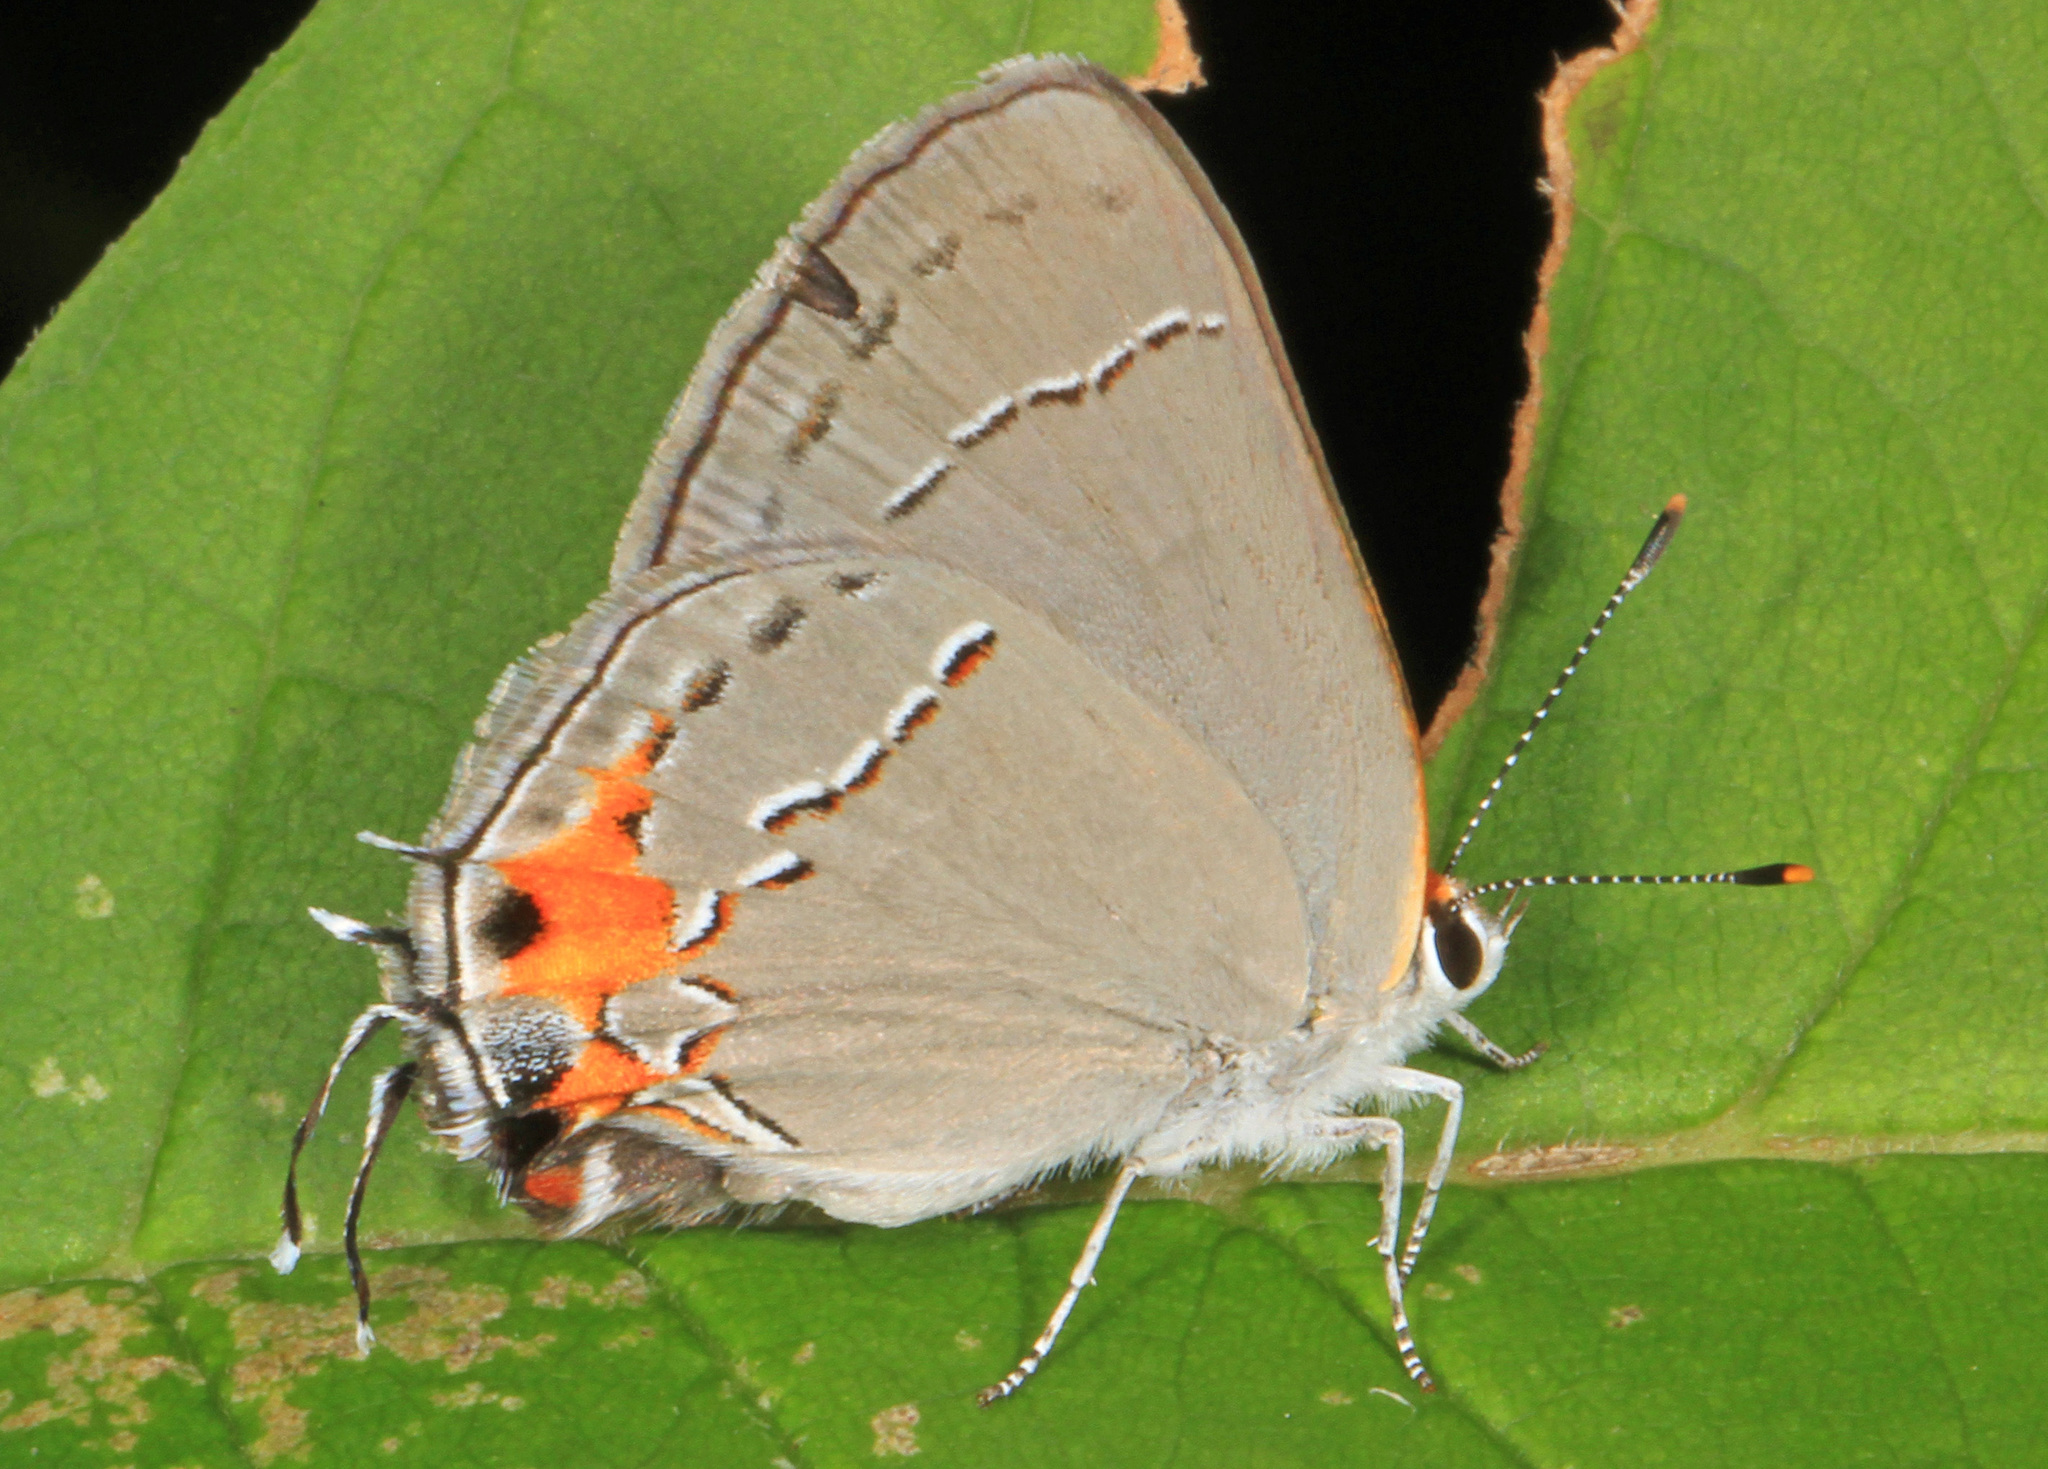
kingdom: Animalia
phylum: Arthropoda
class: Insecta
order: Lepidoptera
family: Lycaenidae
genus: Strymon
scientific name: Strymon melinus
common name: Gray hairstreak
